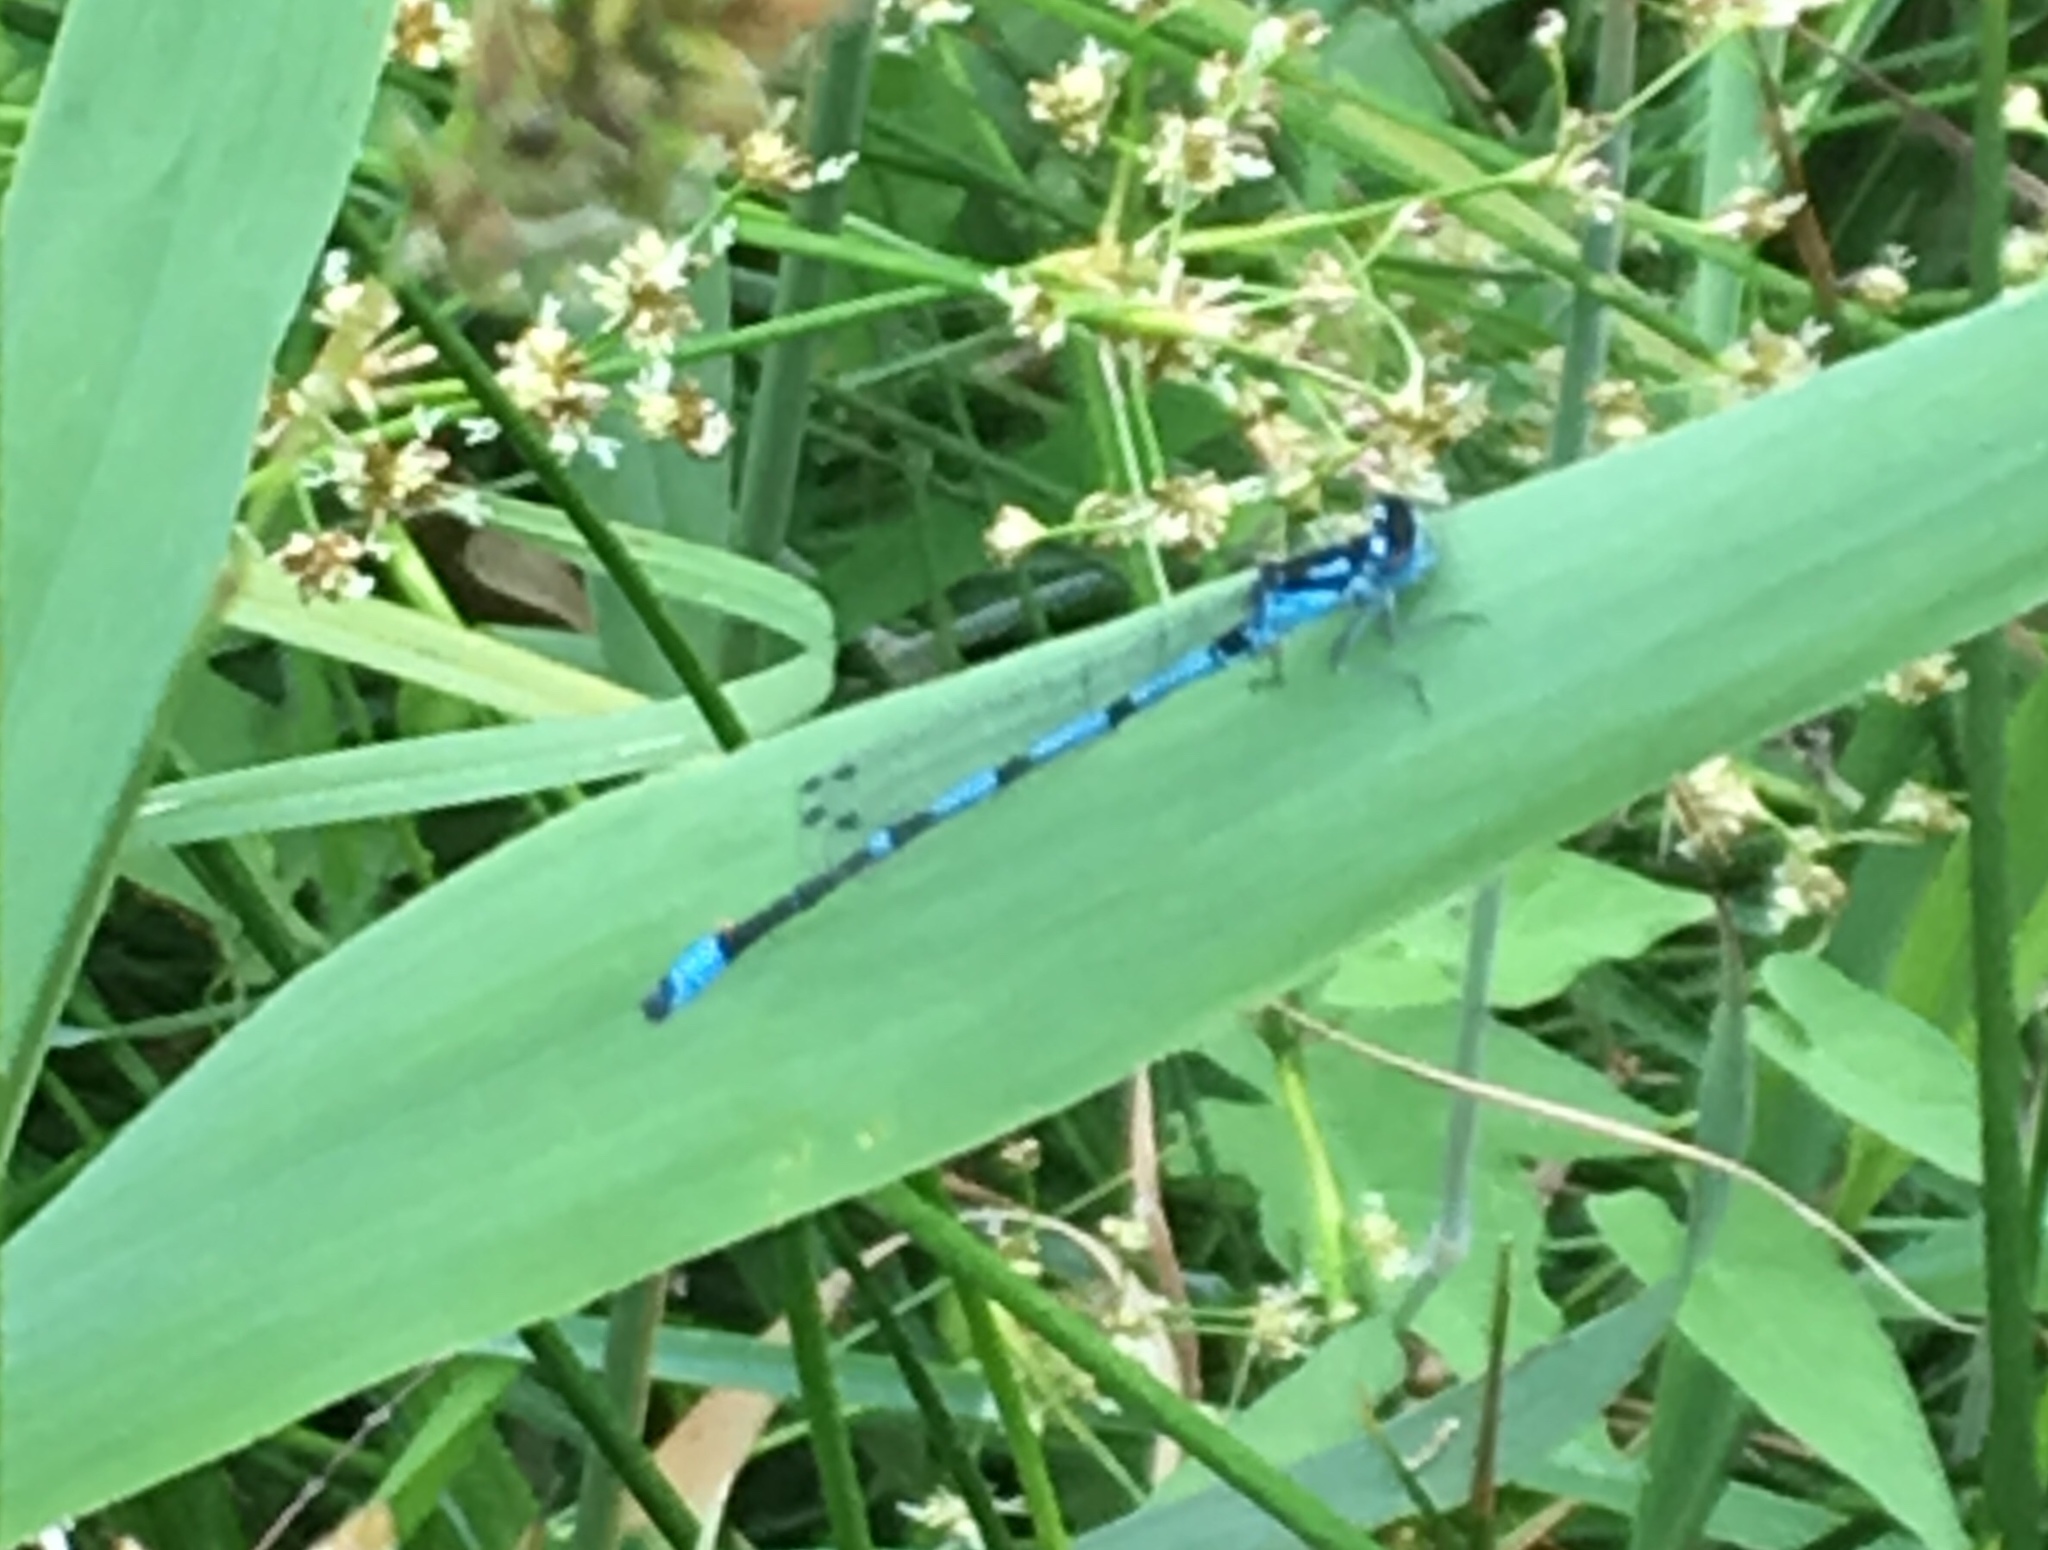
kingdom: Animalia
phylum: Arthropoda
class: Insecta
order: Odonata
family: Coenagrionidae
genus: Coenagrion
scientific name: Coenagrion pulchellum
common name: Variable bluet
